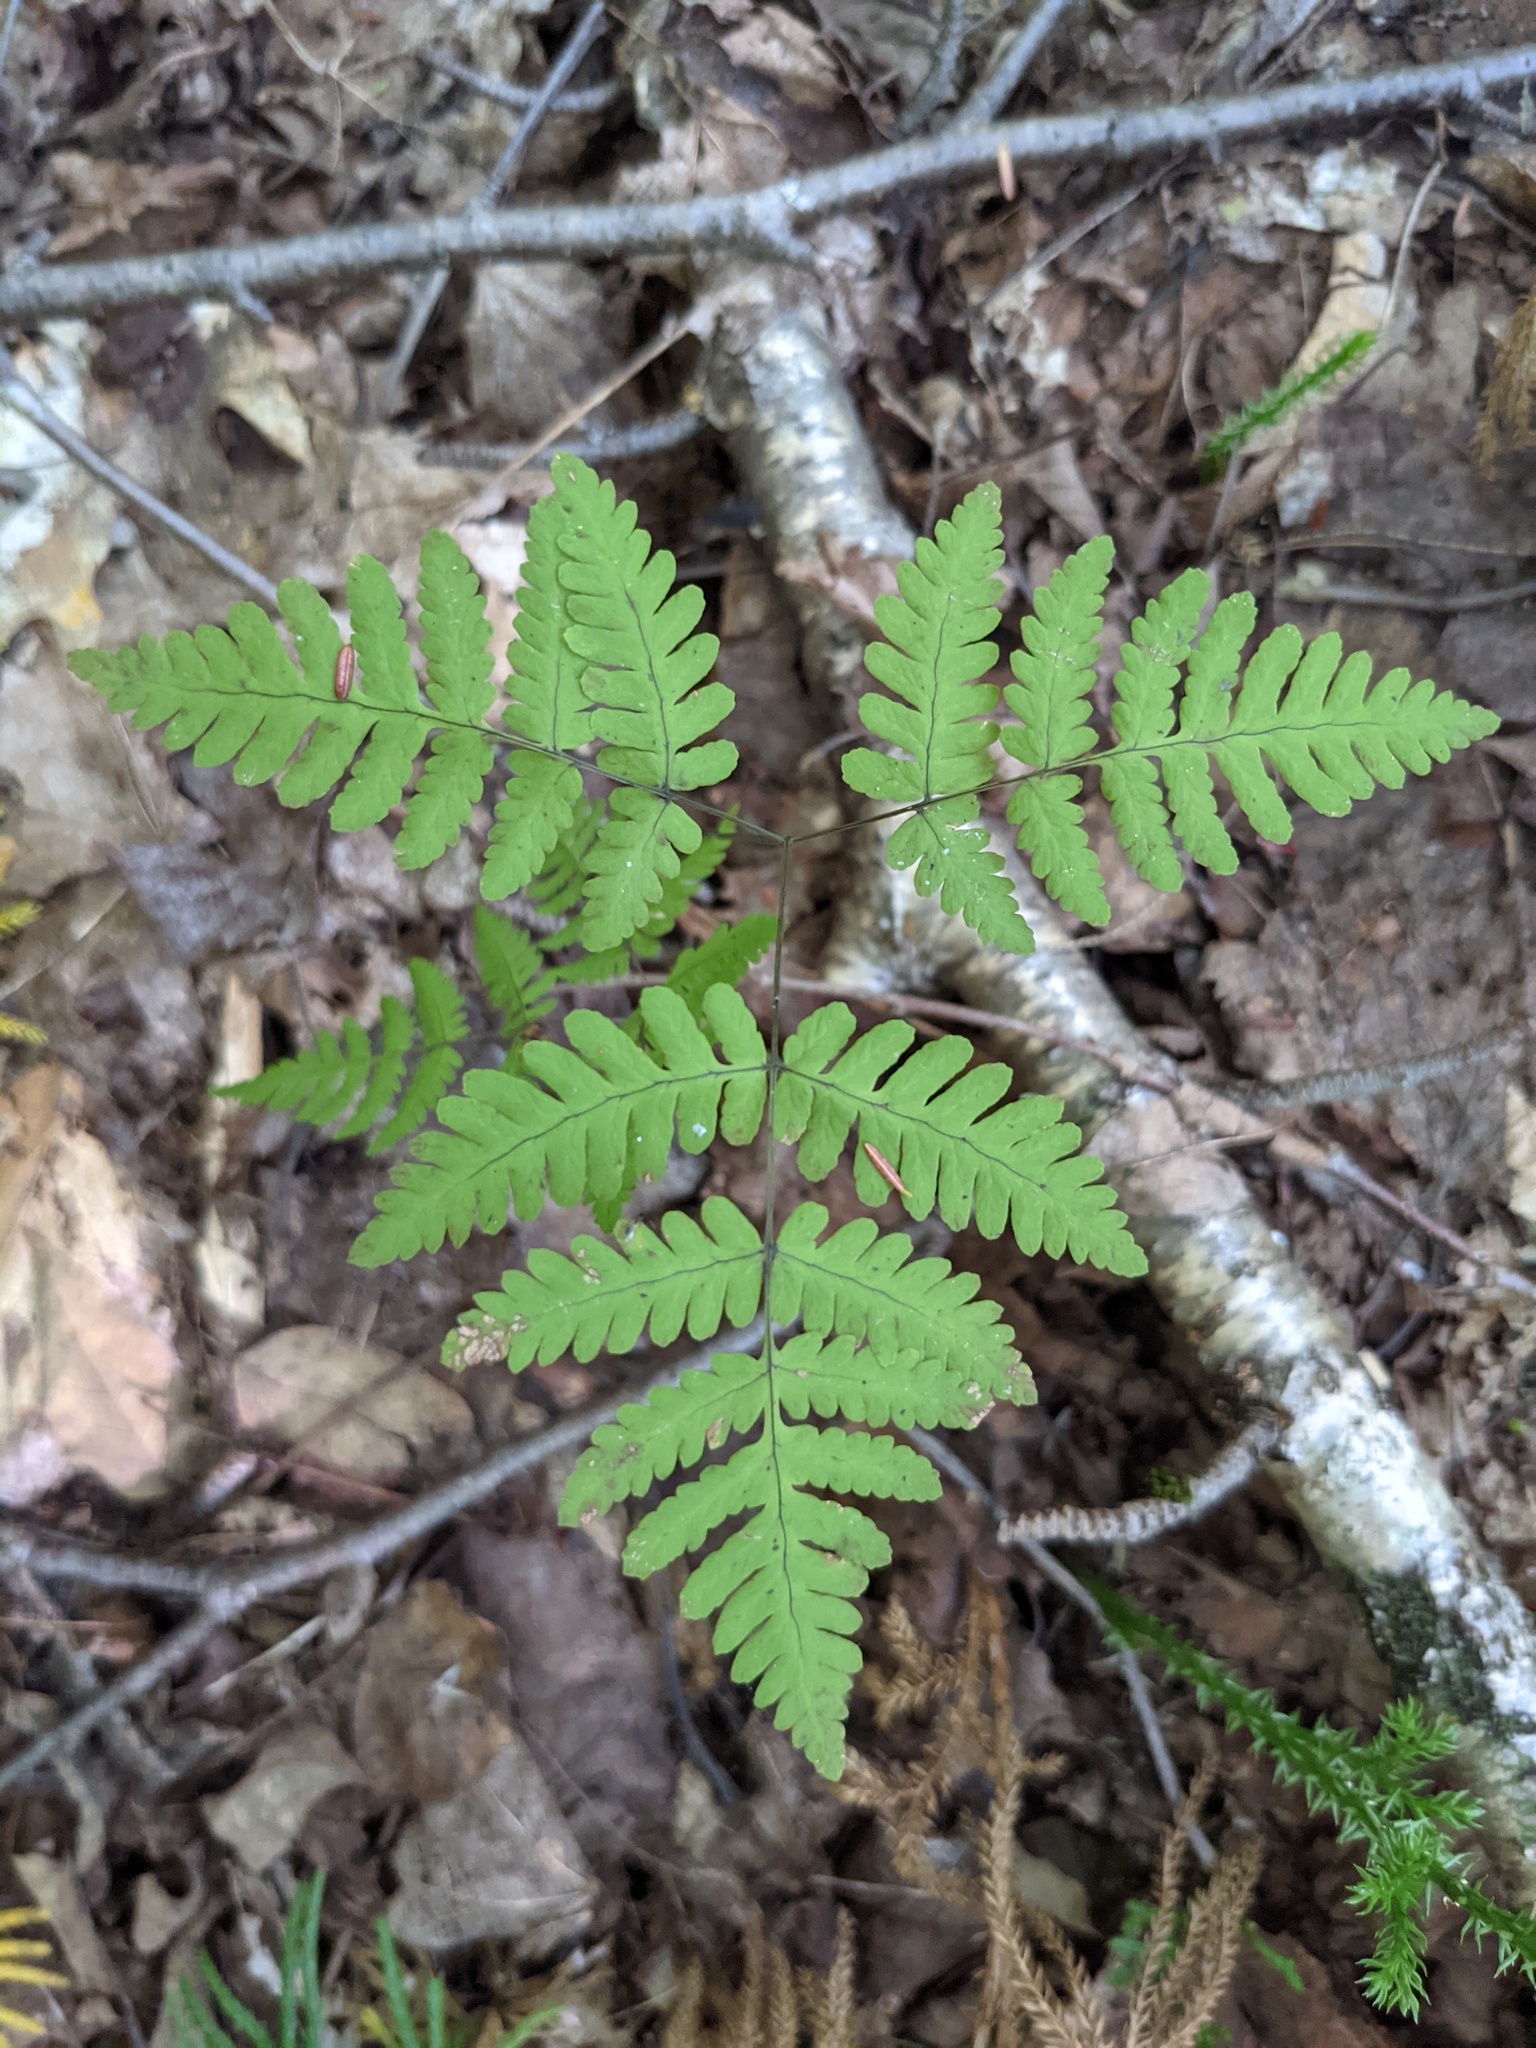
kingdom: Plantae
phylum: Tracheophyta
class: Polypodiopsida
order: Polypodiales
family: Cystopteridaceae
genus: Gymnocarpium
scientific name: Gymnocarpium dryopteris
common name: Oak fern
